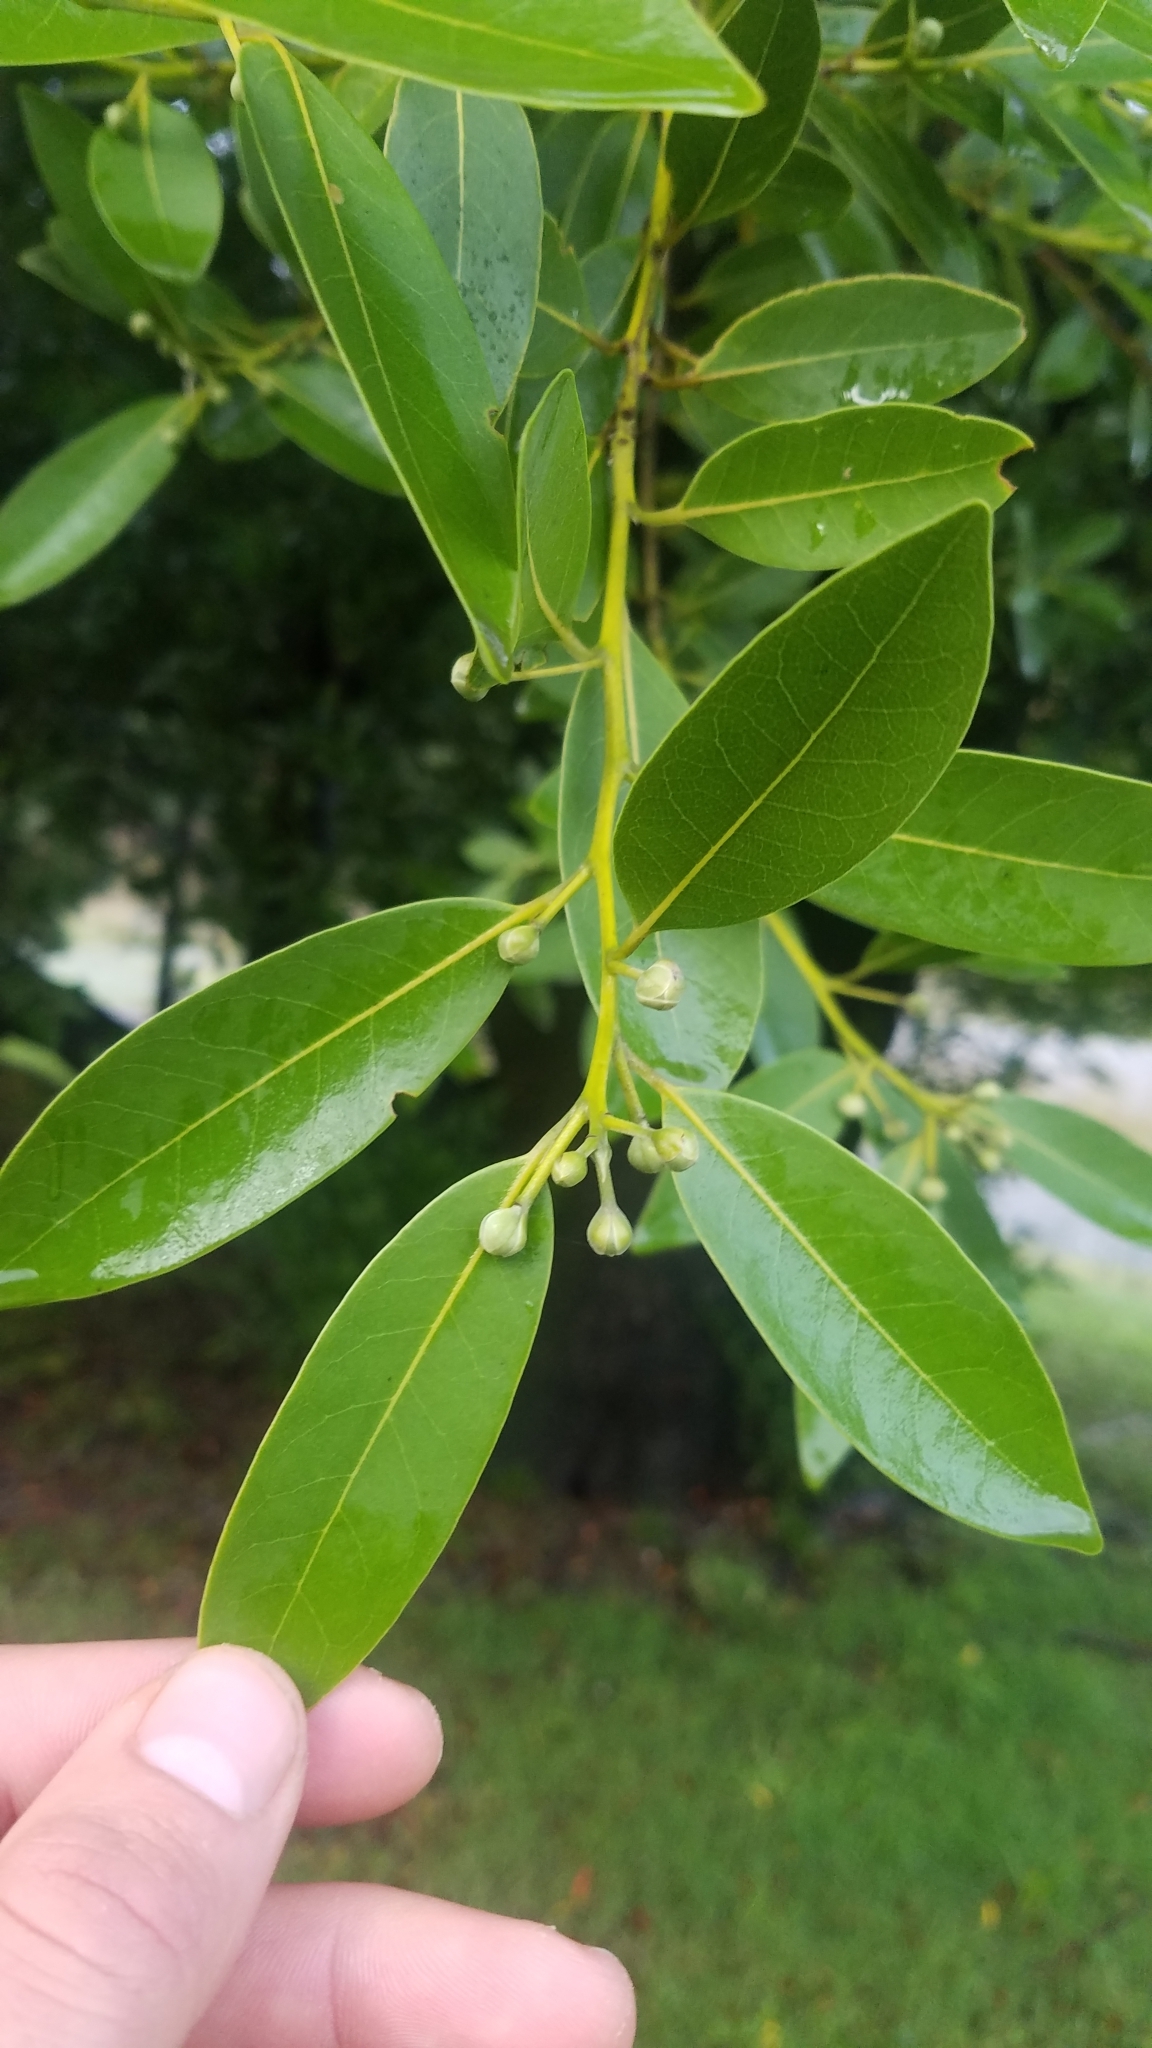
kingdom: Plantae
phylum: Tracheophyta
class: Magnoliopsida
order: Laurales
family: Lauraceae
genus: Umbellularia
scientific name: Umbellularia californica
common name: California bay
